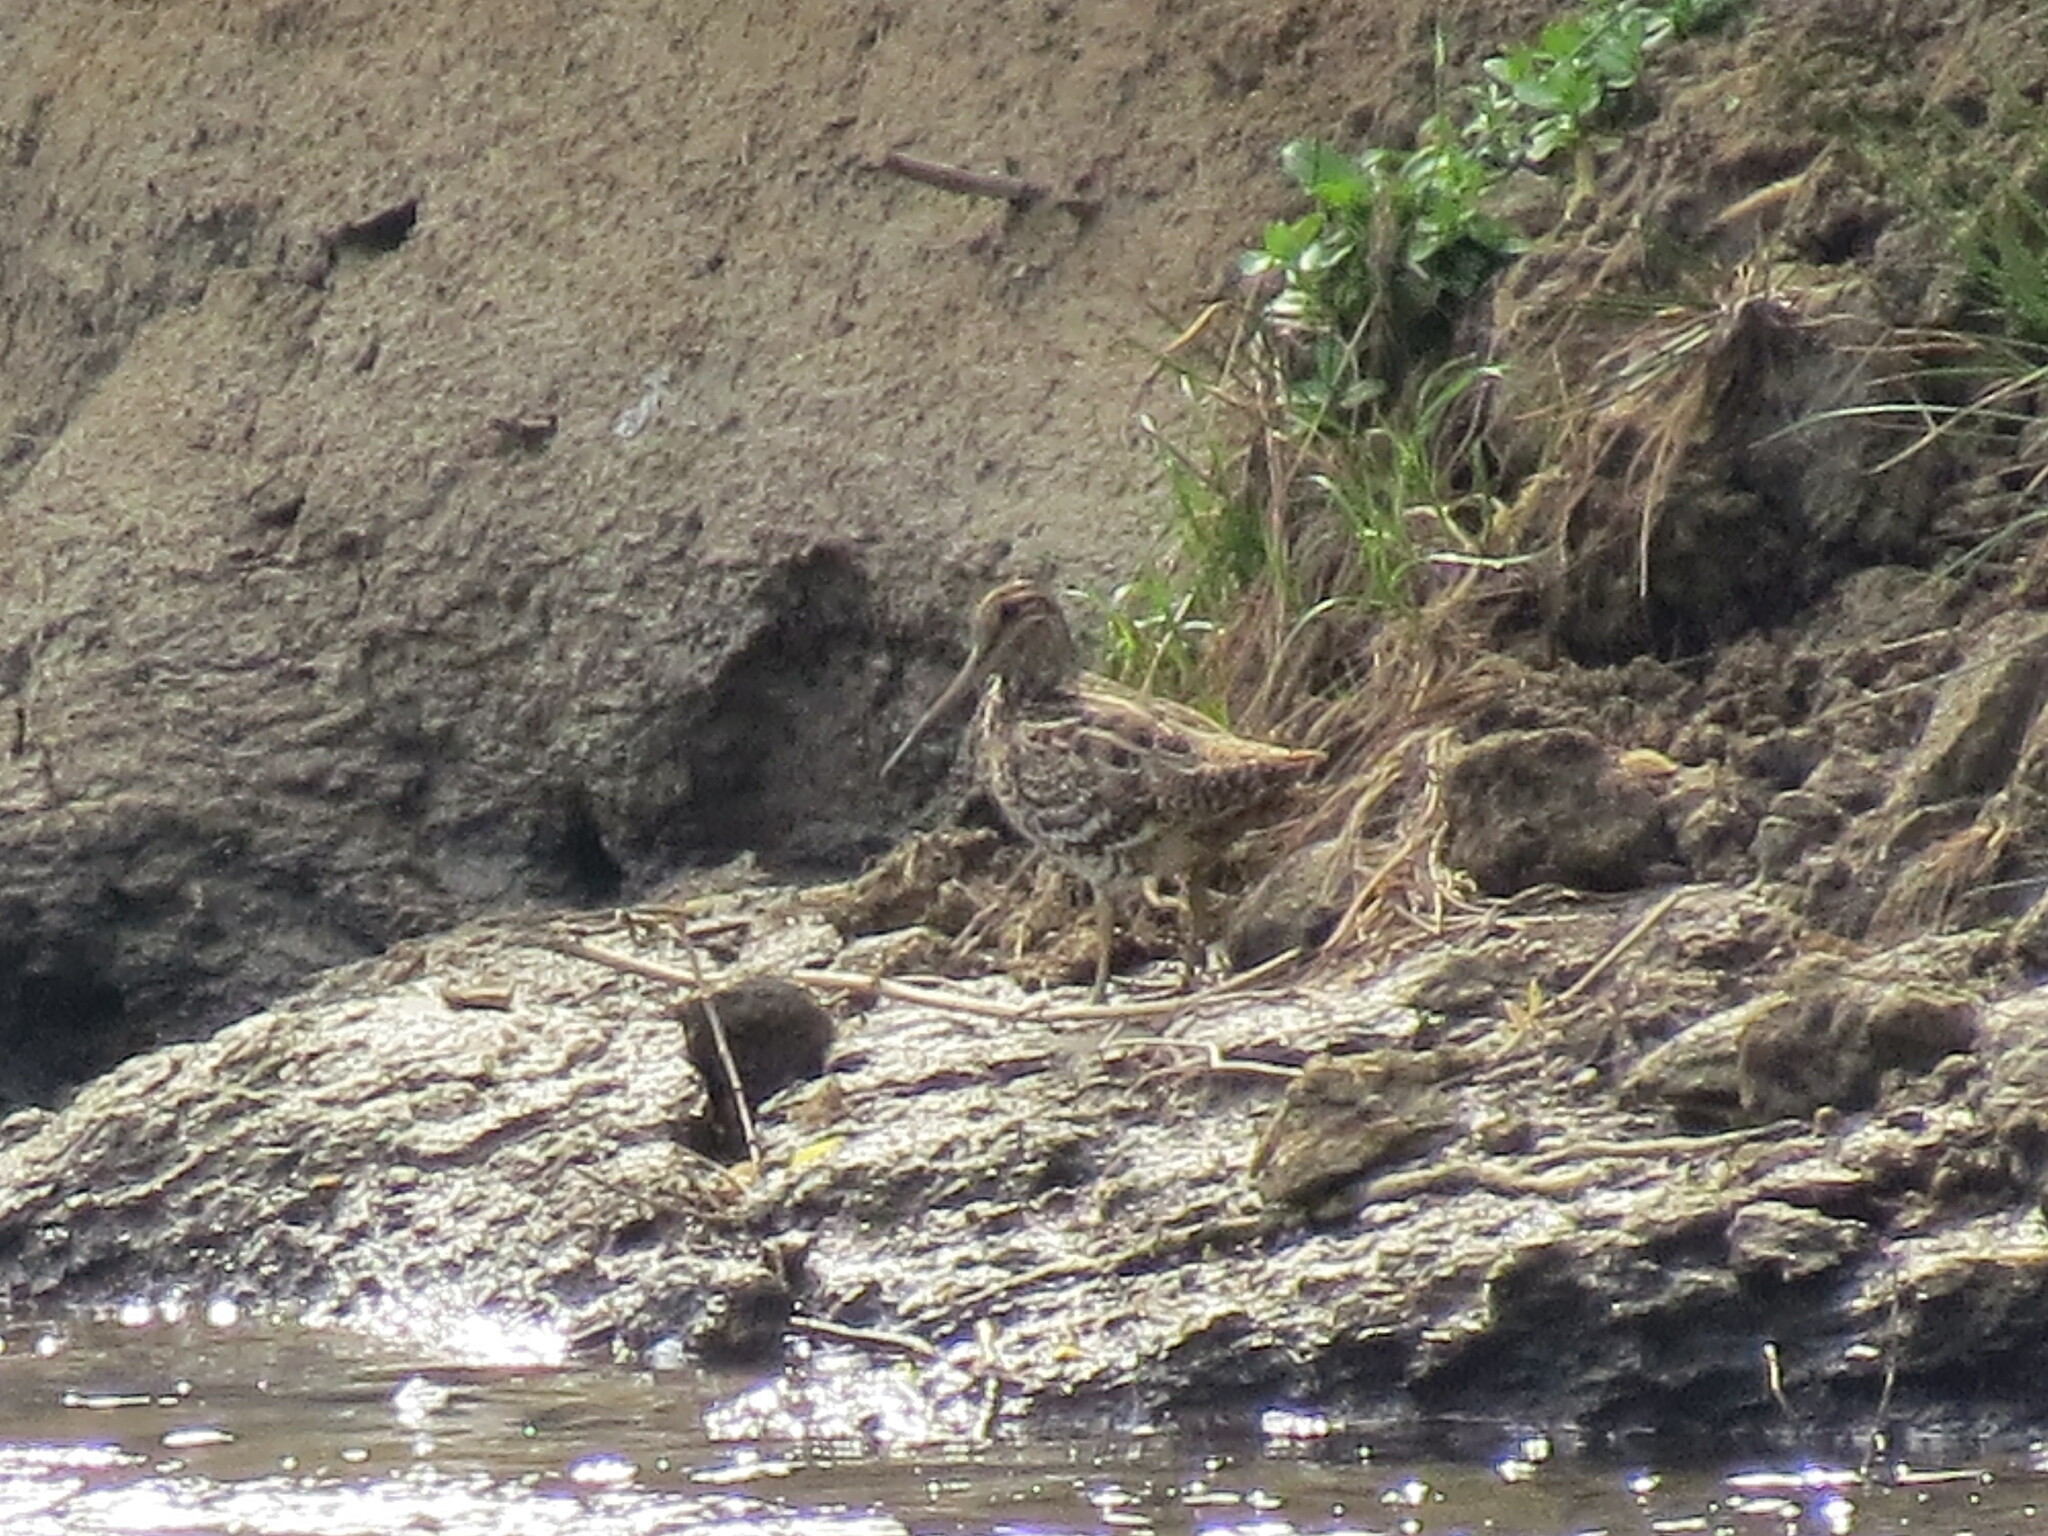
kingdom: Animalia
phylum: Chordata
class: Aves
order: Charadriiformes
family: Scolopacidae
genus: Gallinago
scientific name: Gallinago media
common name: Great snipe
